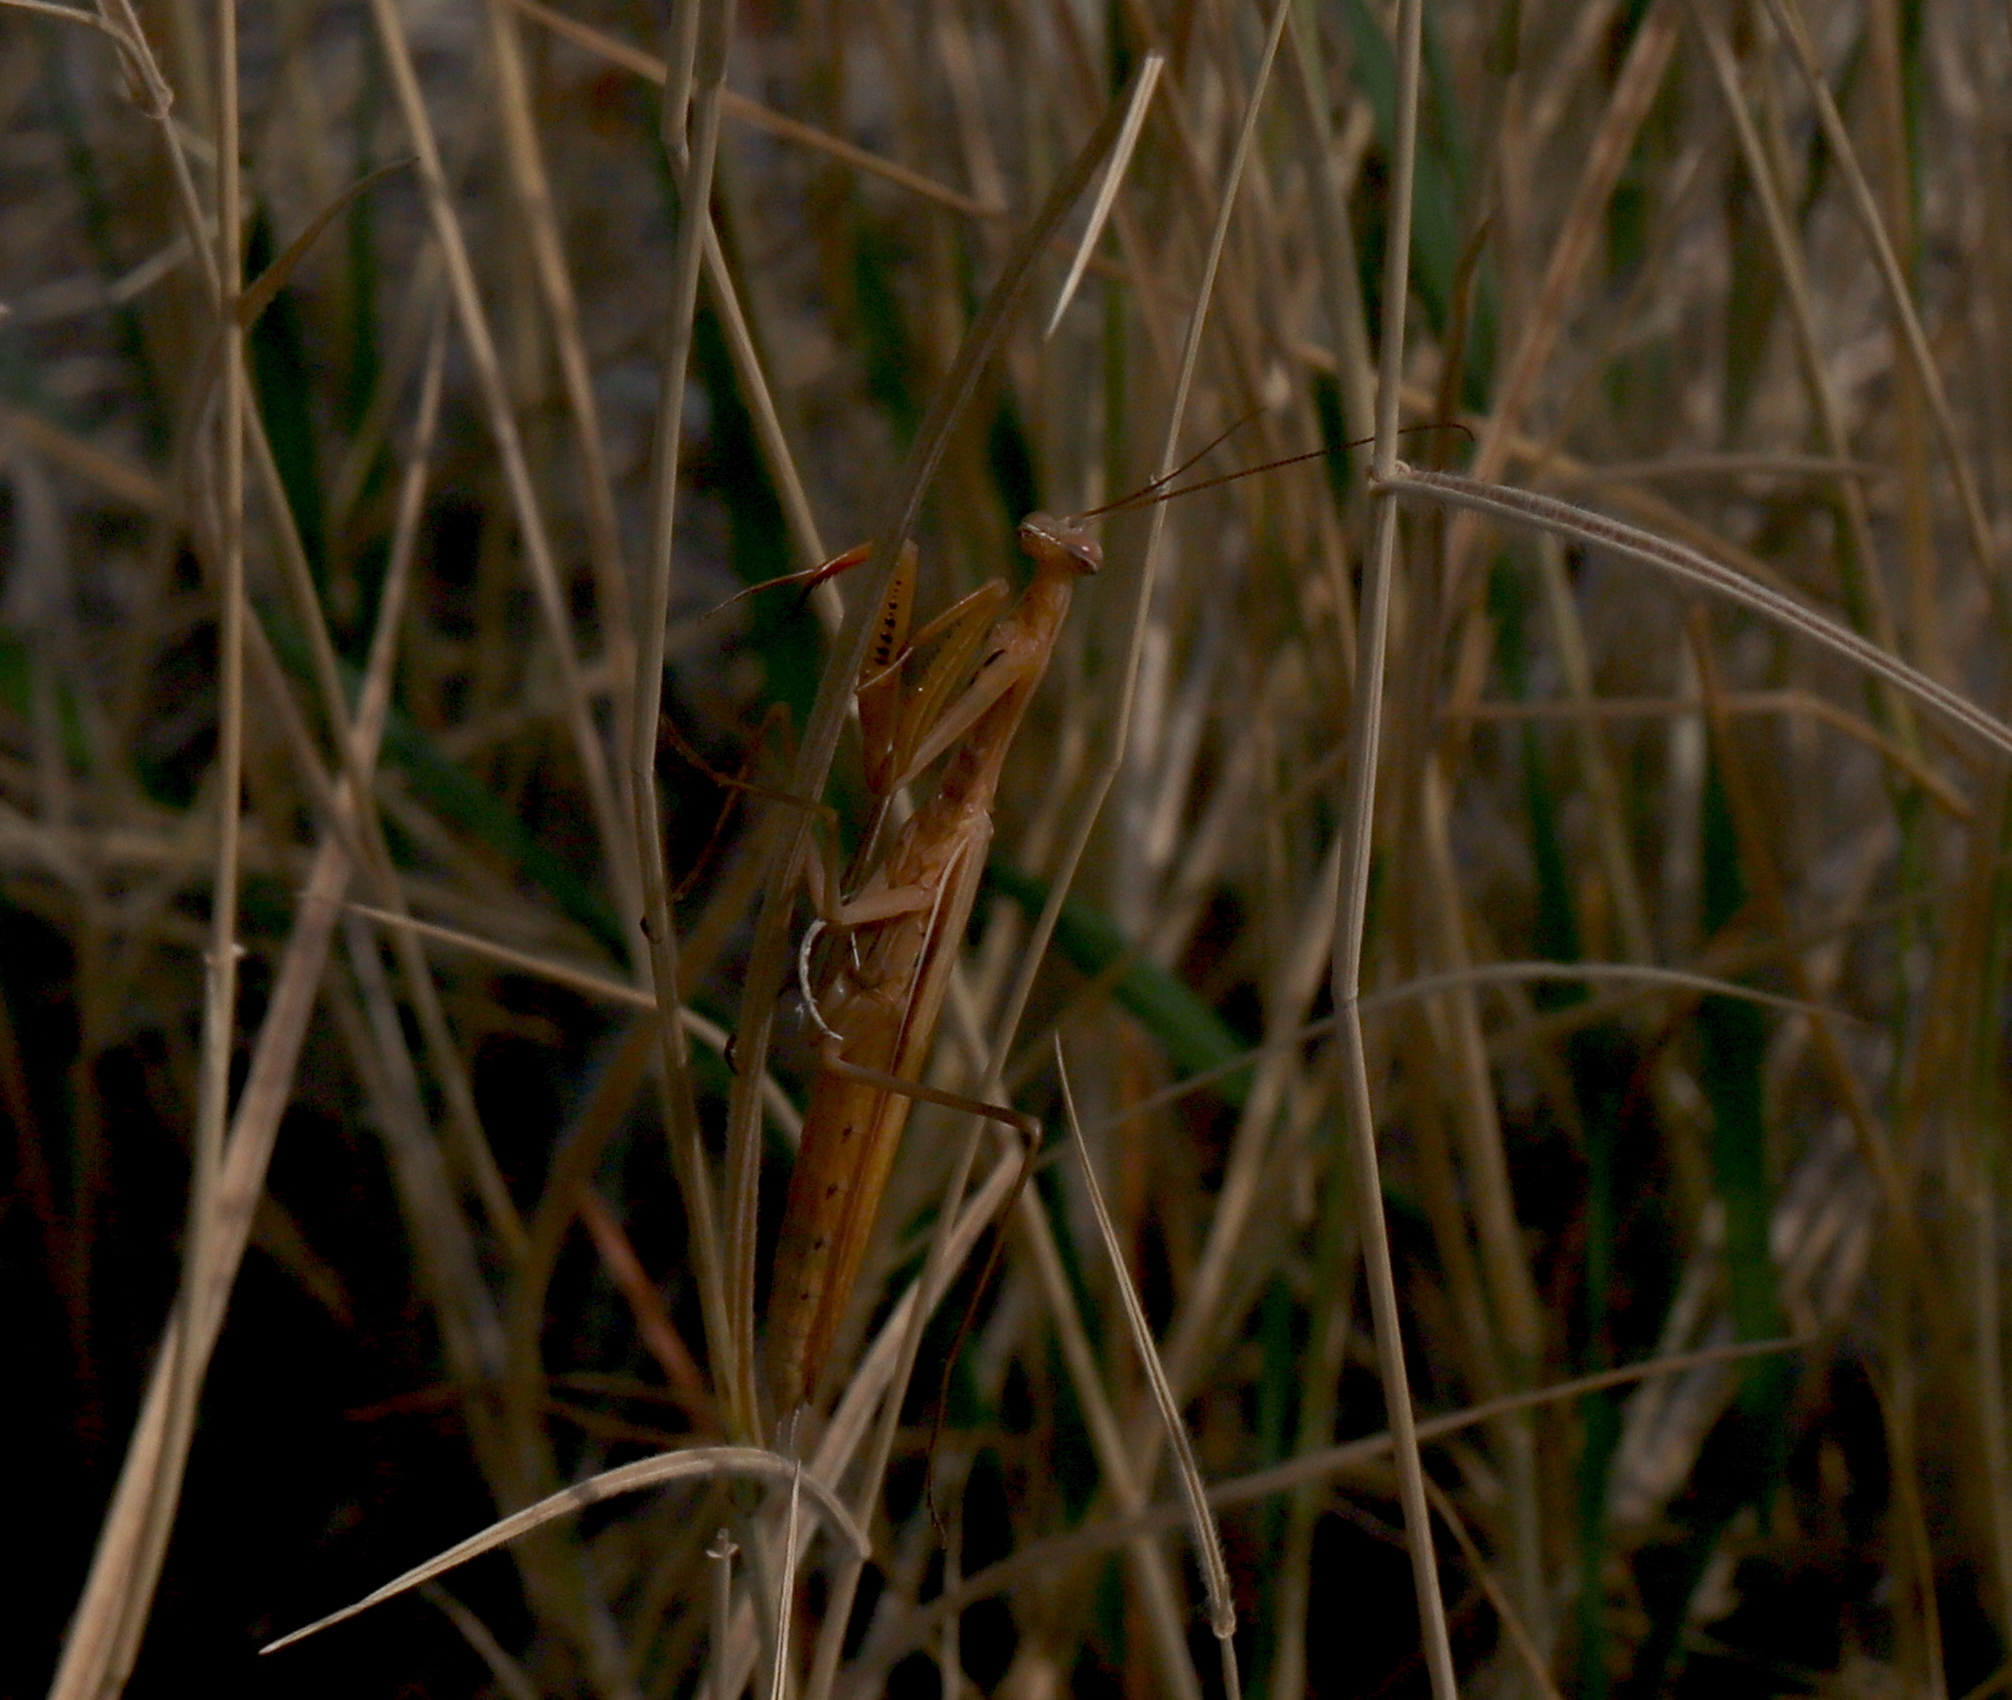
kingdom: Animalia
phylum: Arthropoda
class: Insecta
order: Mantodea
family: Mantidae
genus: Mantis
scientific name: Mantis religiosa
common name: Praying mantis
